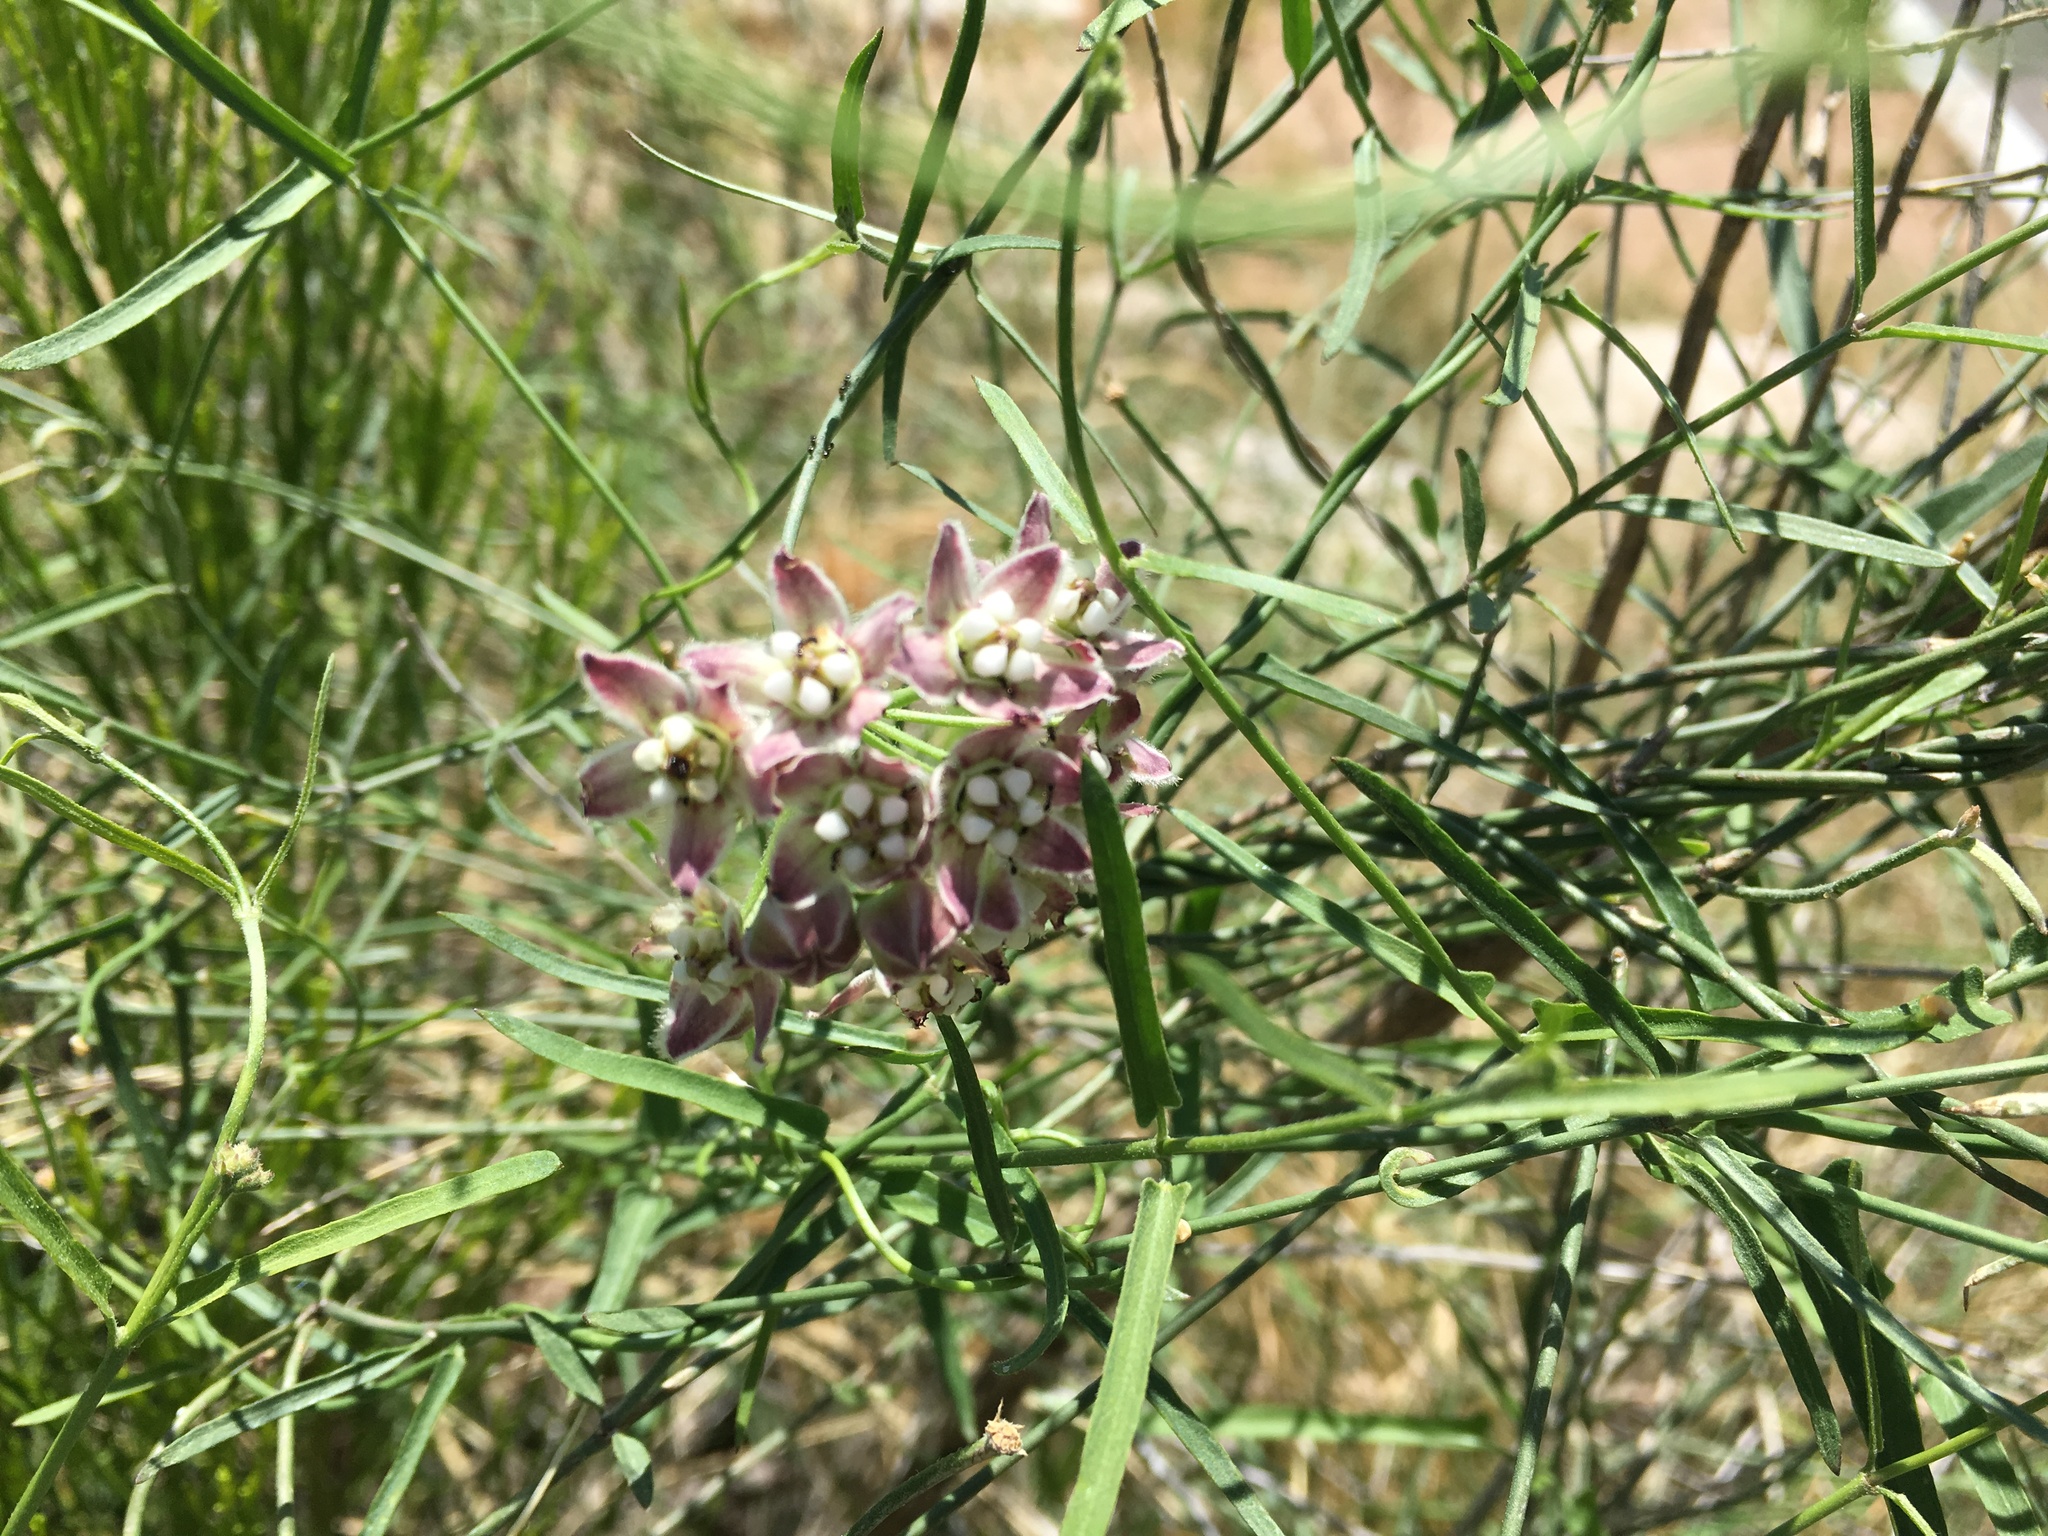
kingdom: Plantae
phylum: Tracheophyta
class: Magnoliopsida
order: Gentianales
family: Apocynaceae
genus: Funastrum
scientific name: Funastrum heterophyllum
